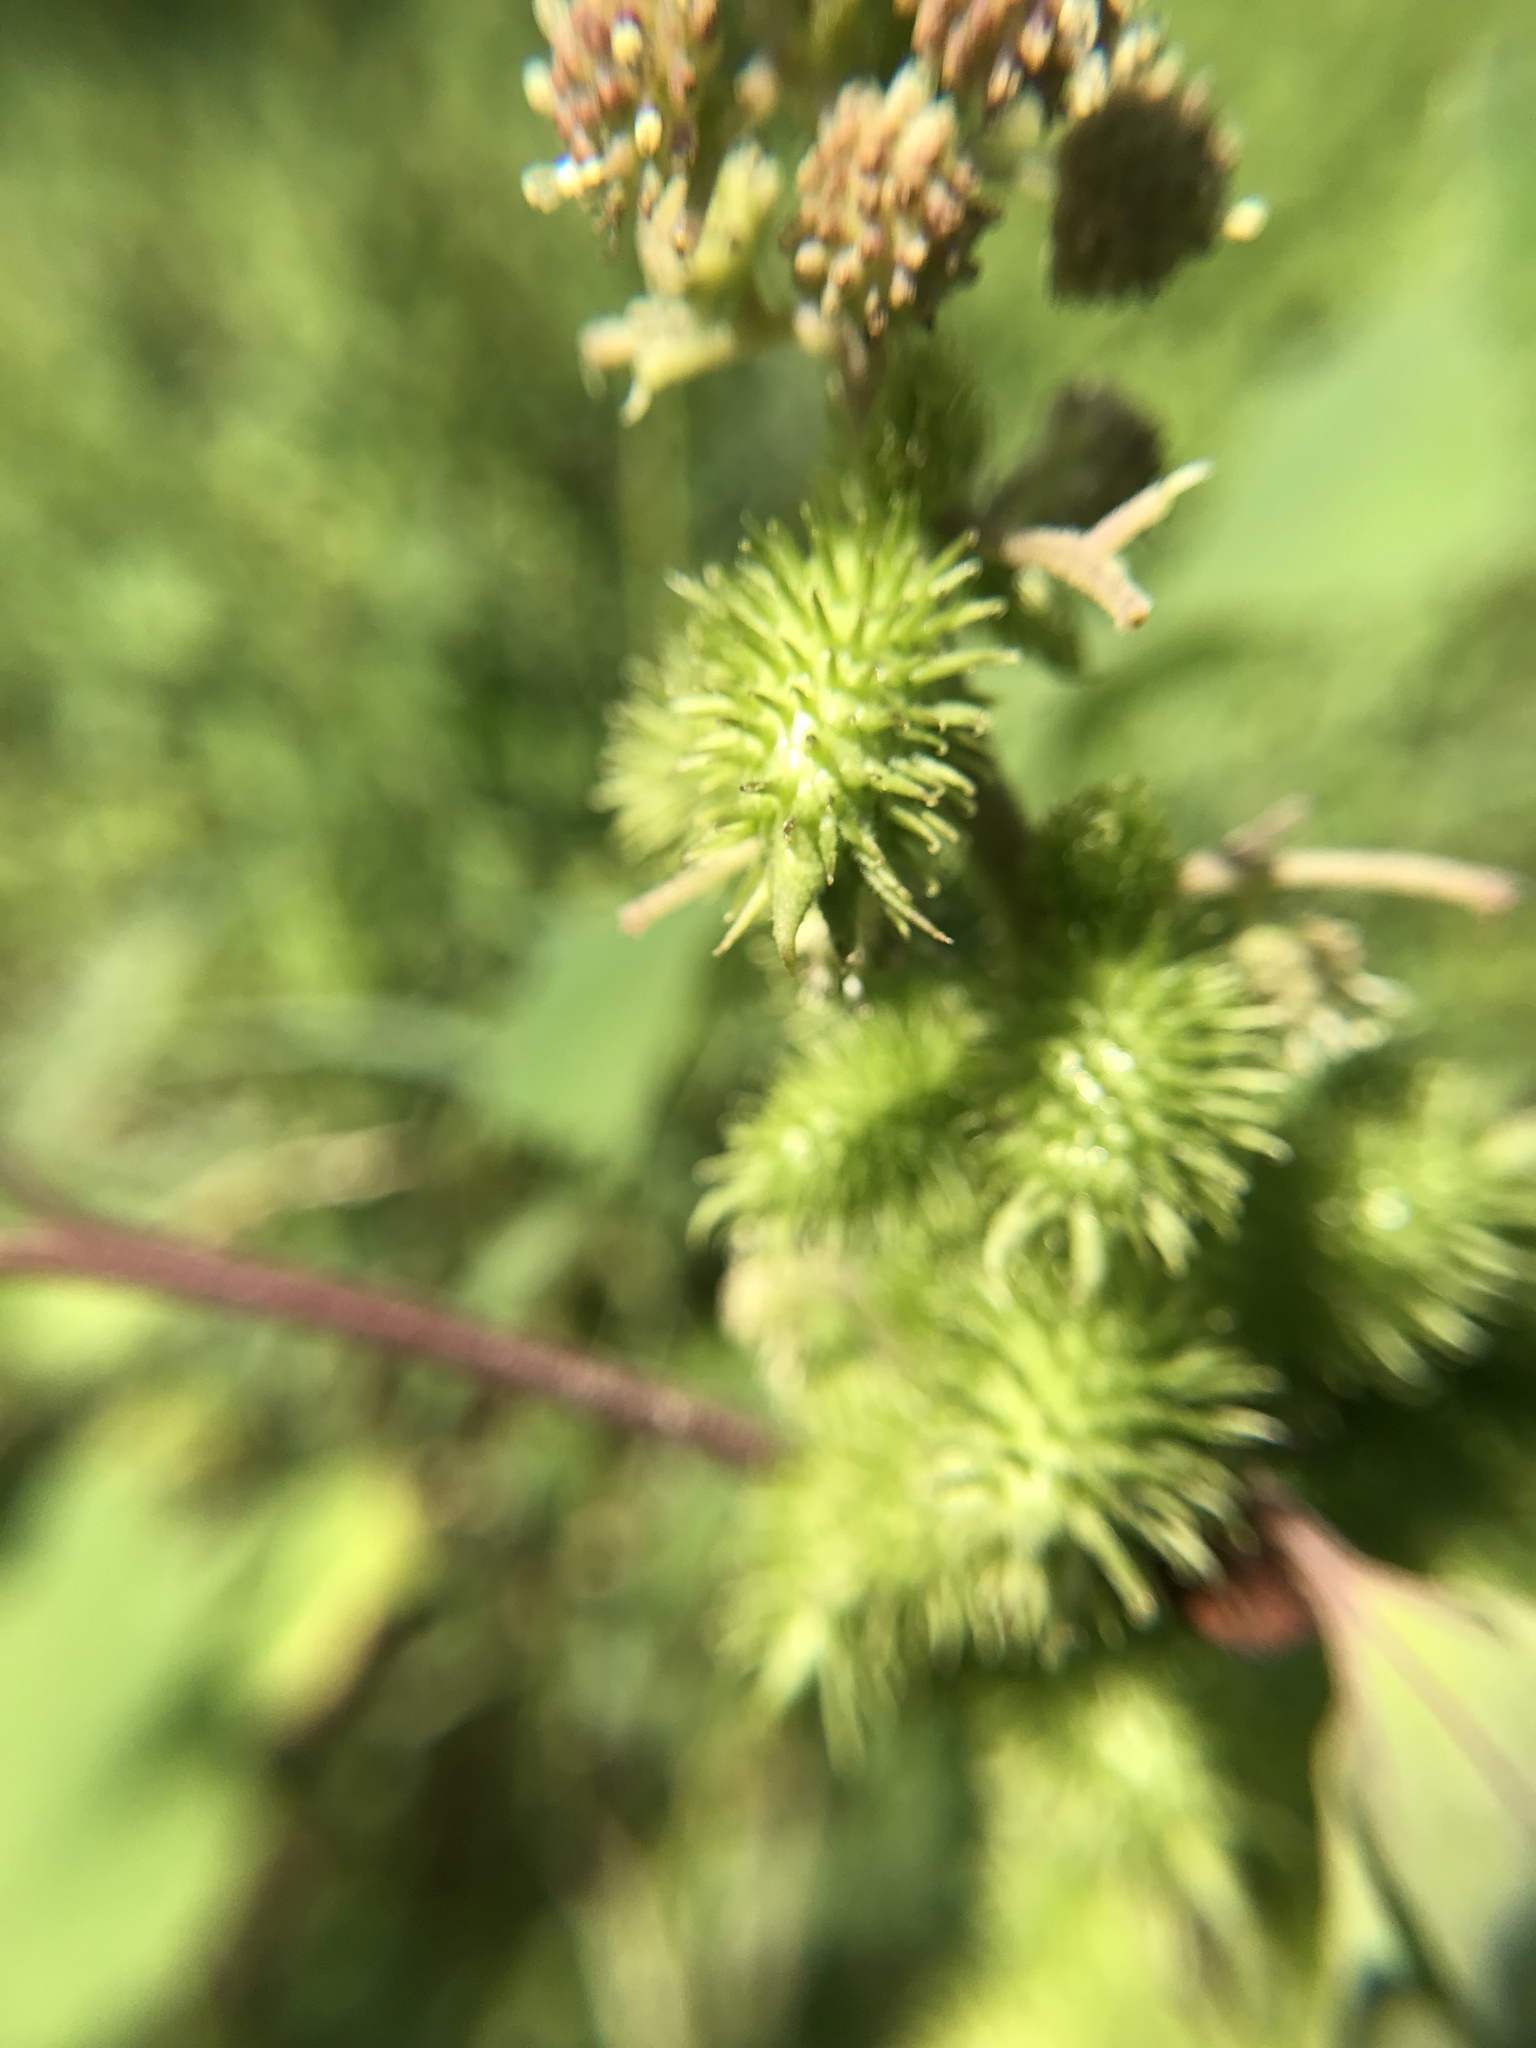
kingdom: Plantae
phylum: Tracheophyta
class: Magnoliopsida
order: Asterales
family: Asteraceae
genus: Xanthium
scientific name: Xanthium strumarium
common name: Rough cocklebur
